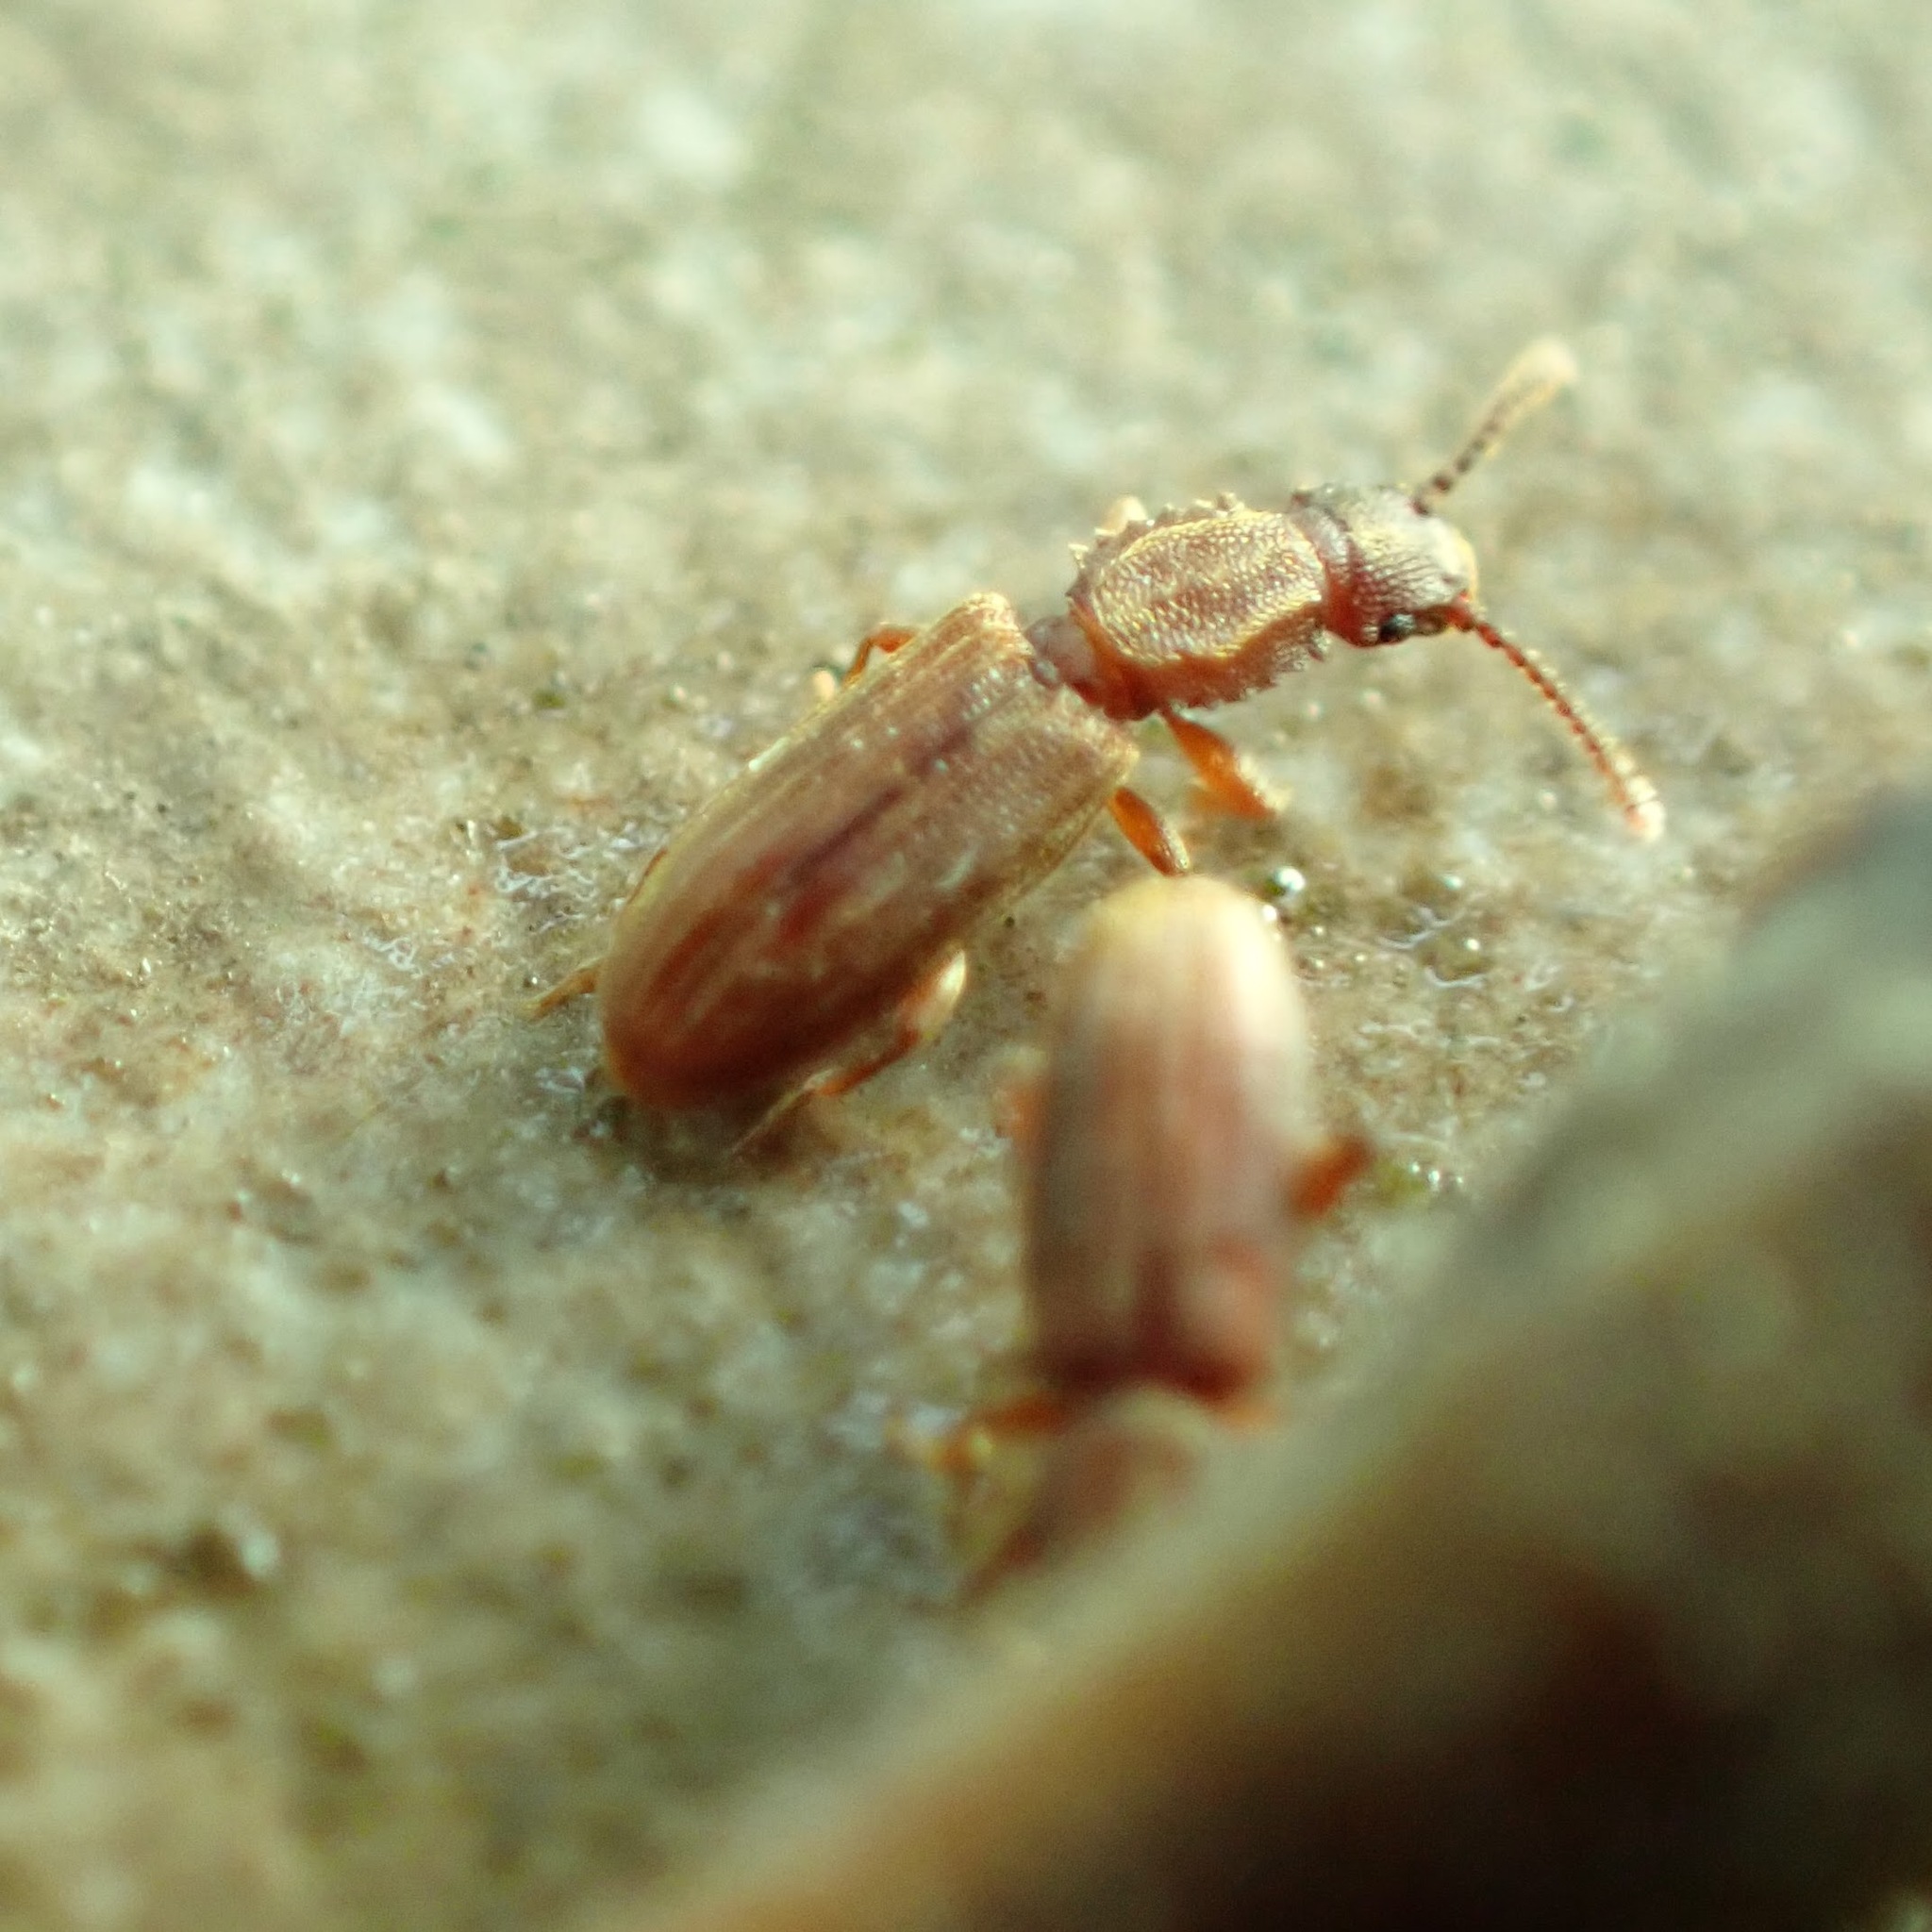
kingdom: Animalia
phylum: Arthropoda
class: Insecta
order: Coleoptera
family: Silvanidae
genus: Oryzaephilus
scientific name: Oryzaephilus surinamensis
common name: Sawtoothed grain beetle
